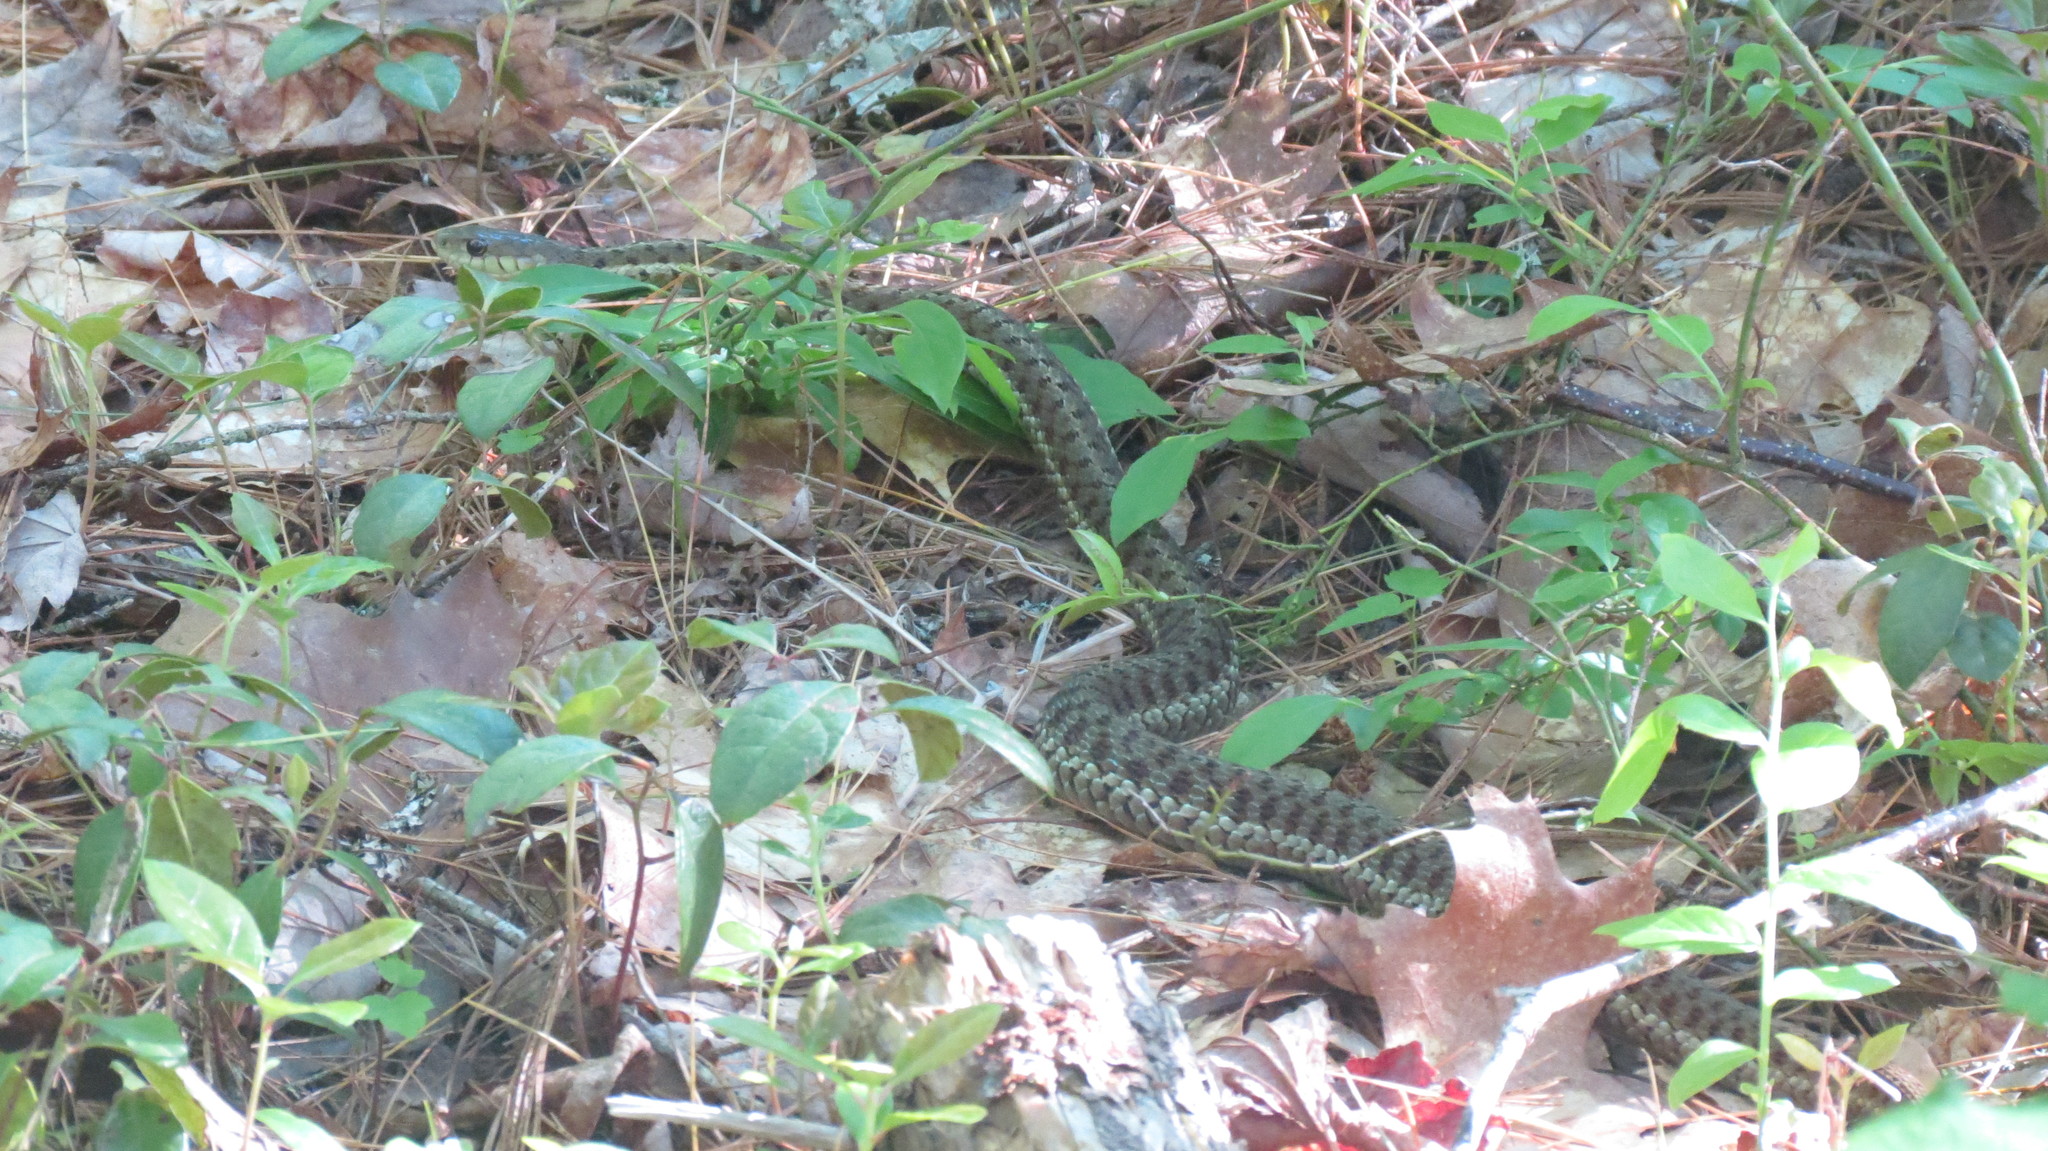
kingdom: Animalia
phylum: Chordata
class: Squamata
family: Colubridae
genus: Thamnophis
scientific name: Thamnophis sirtalis
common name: Common garter snake
